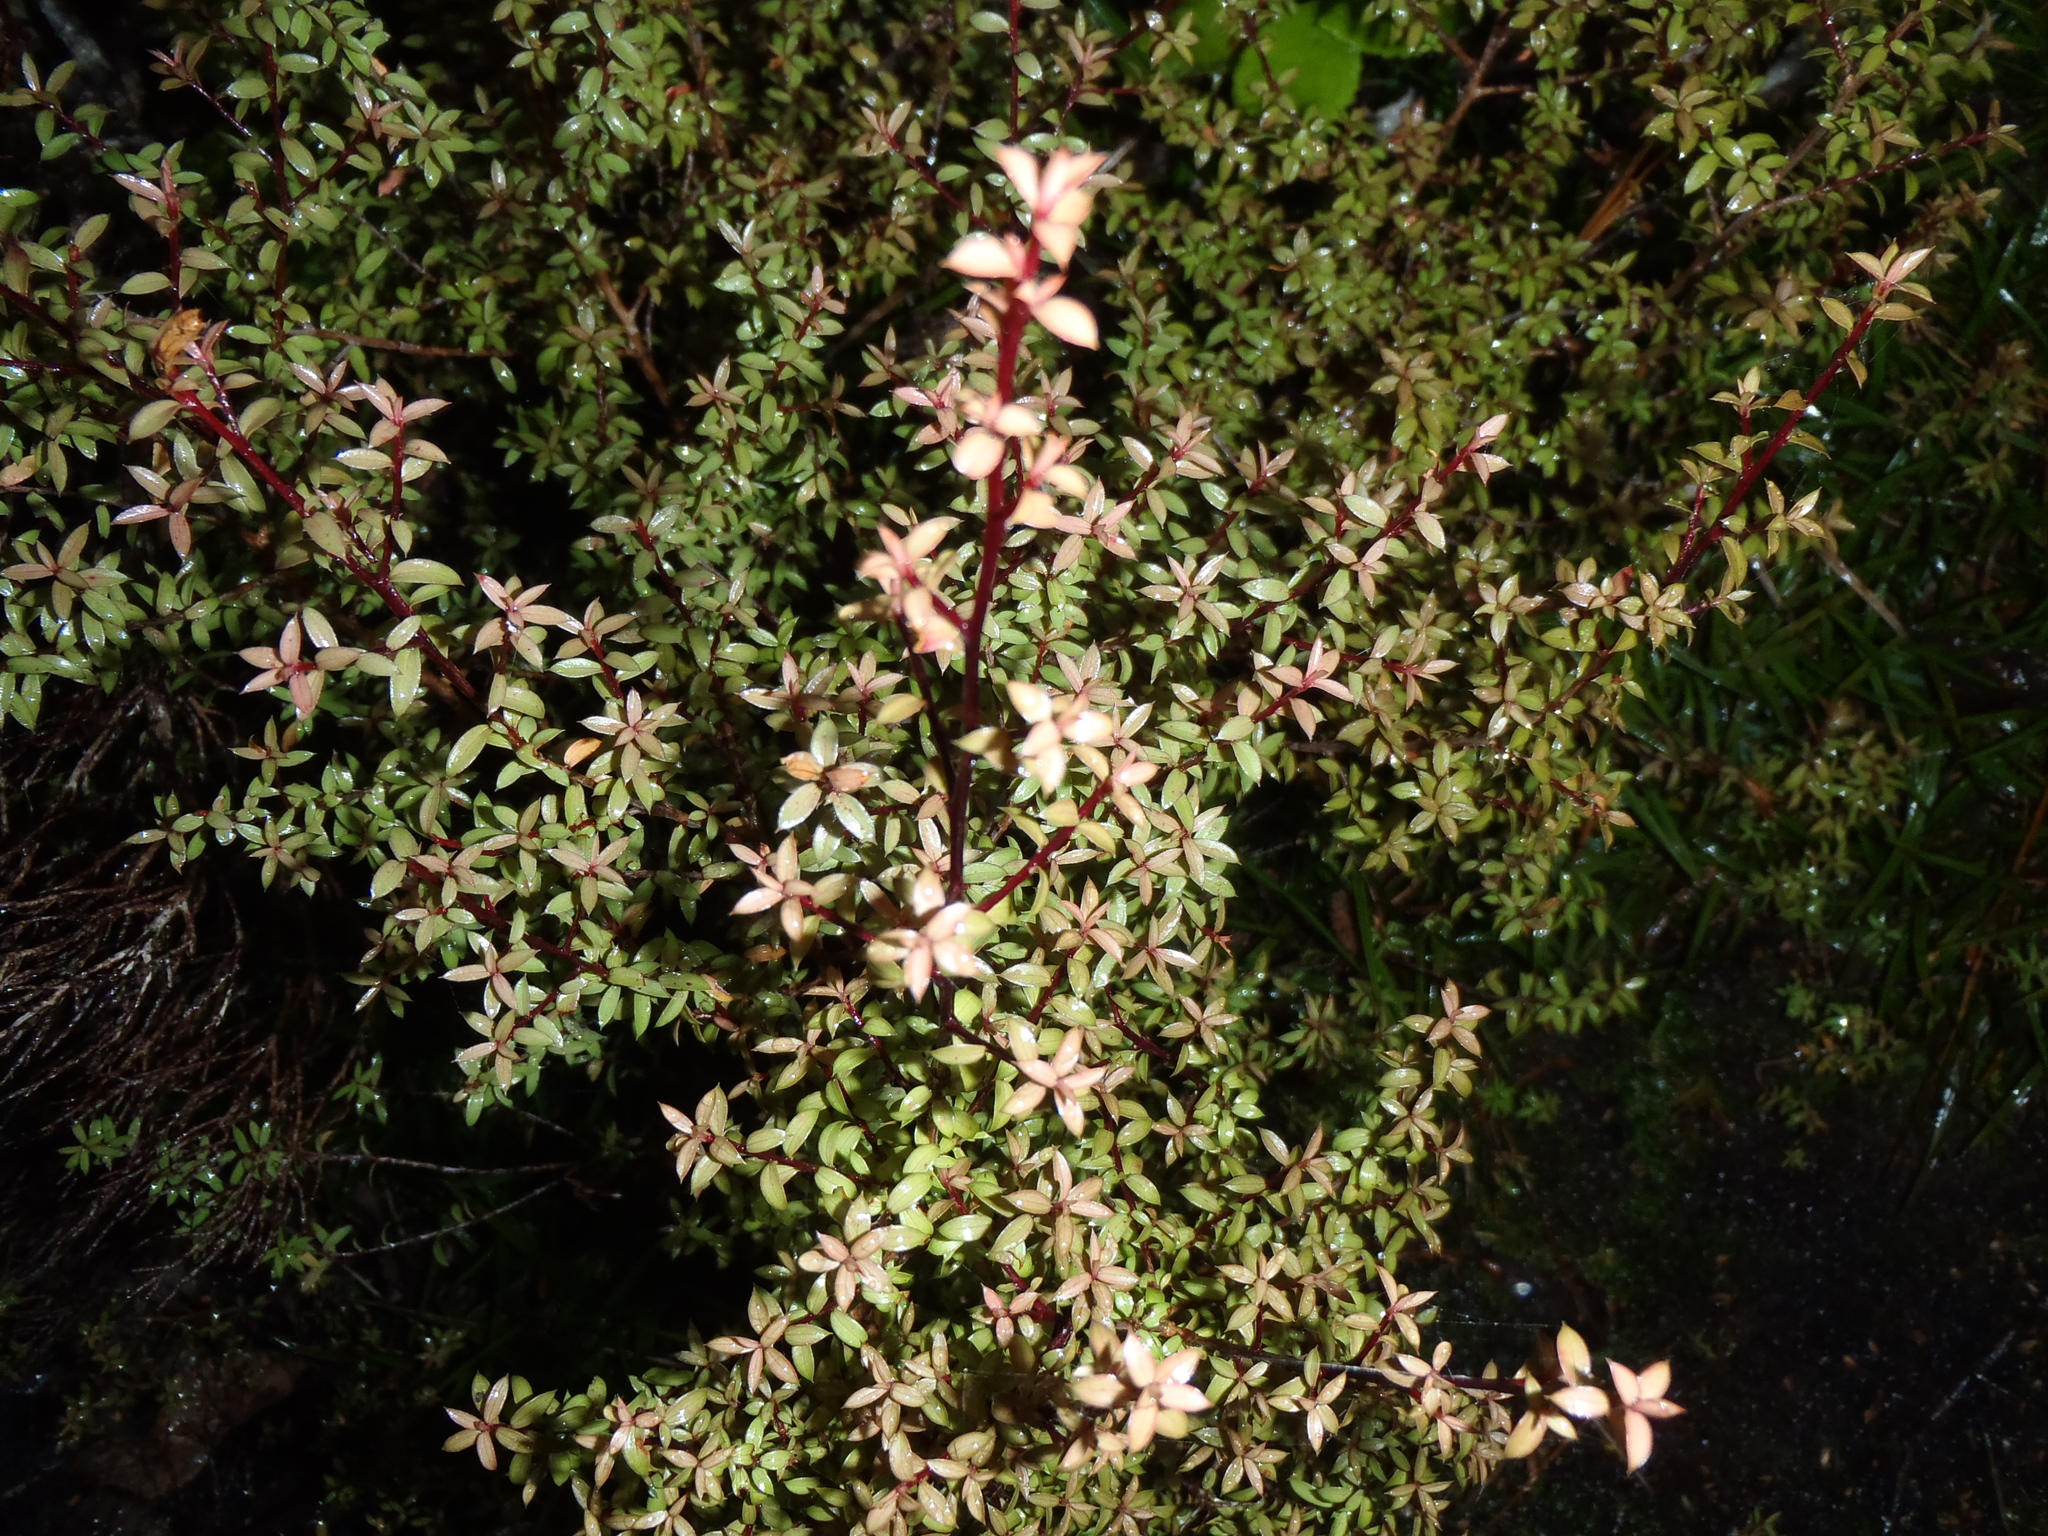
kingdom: Plantae
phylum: Tracheophyta
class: Magnoliopsida
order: Myrtales
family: Myrtaceae
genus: Leptospermum
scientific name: Leptospermum scoparium
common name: Broom tea-tree
